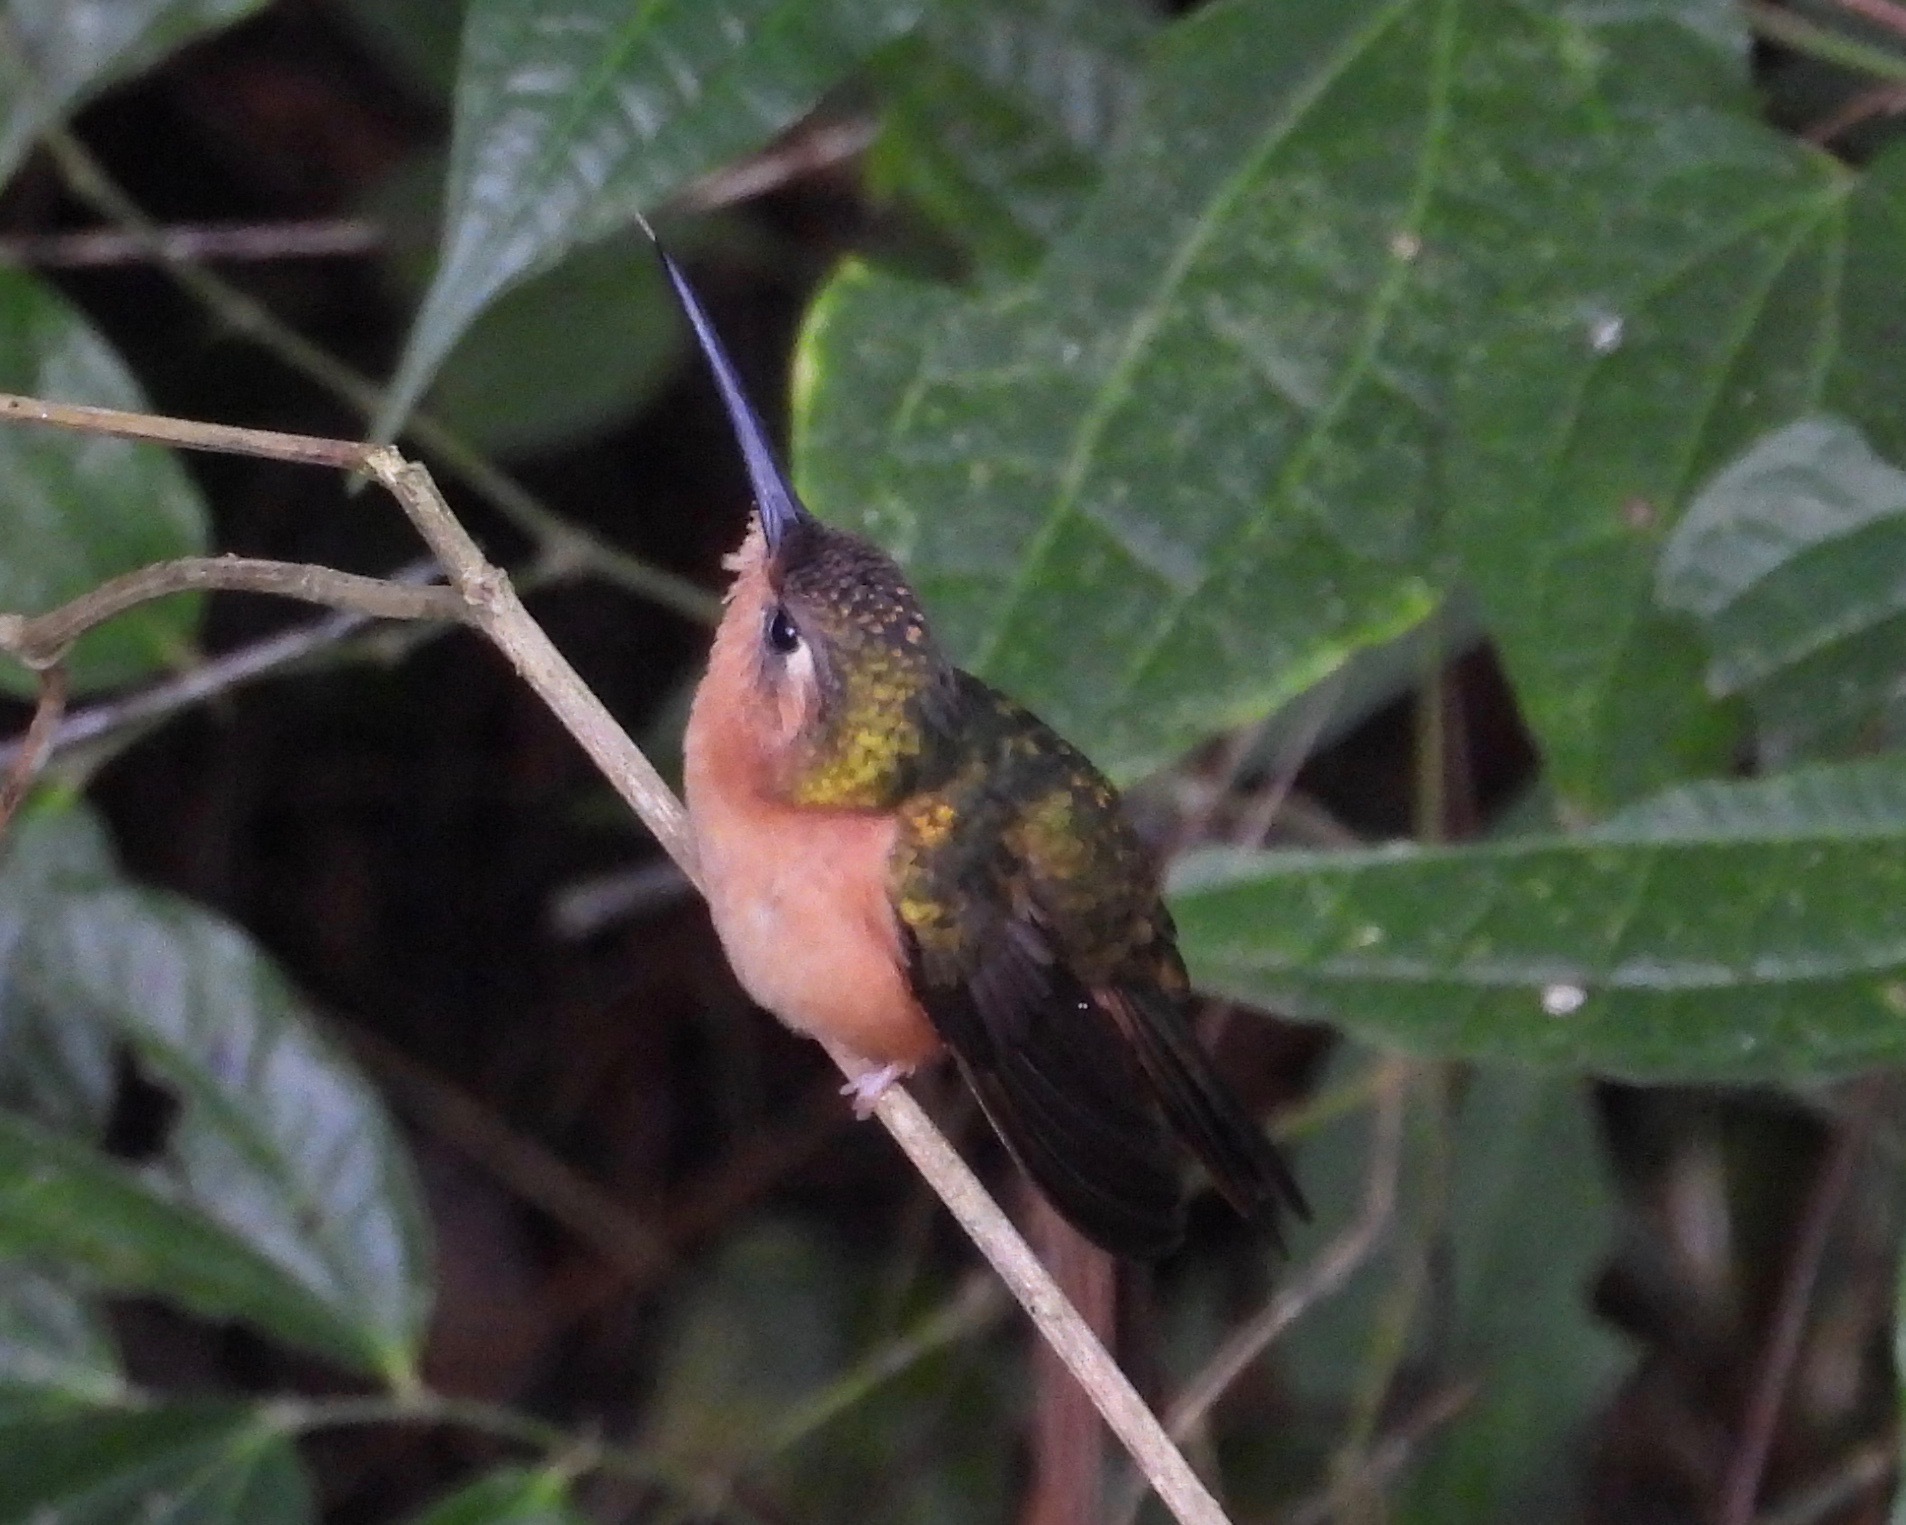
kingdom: Animalia
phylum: Chordata
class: Aves
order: Apodiformes
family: Trochilidae
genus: Pampa
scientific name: Pampa rufa
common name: Rufous sabrewing
